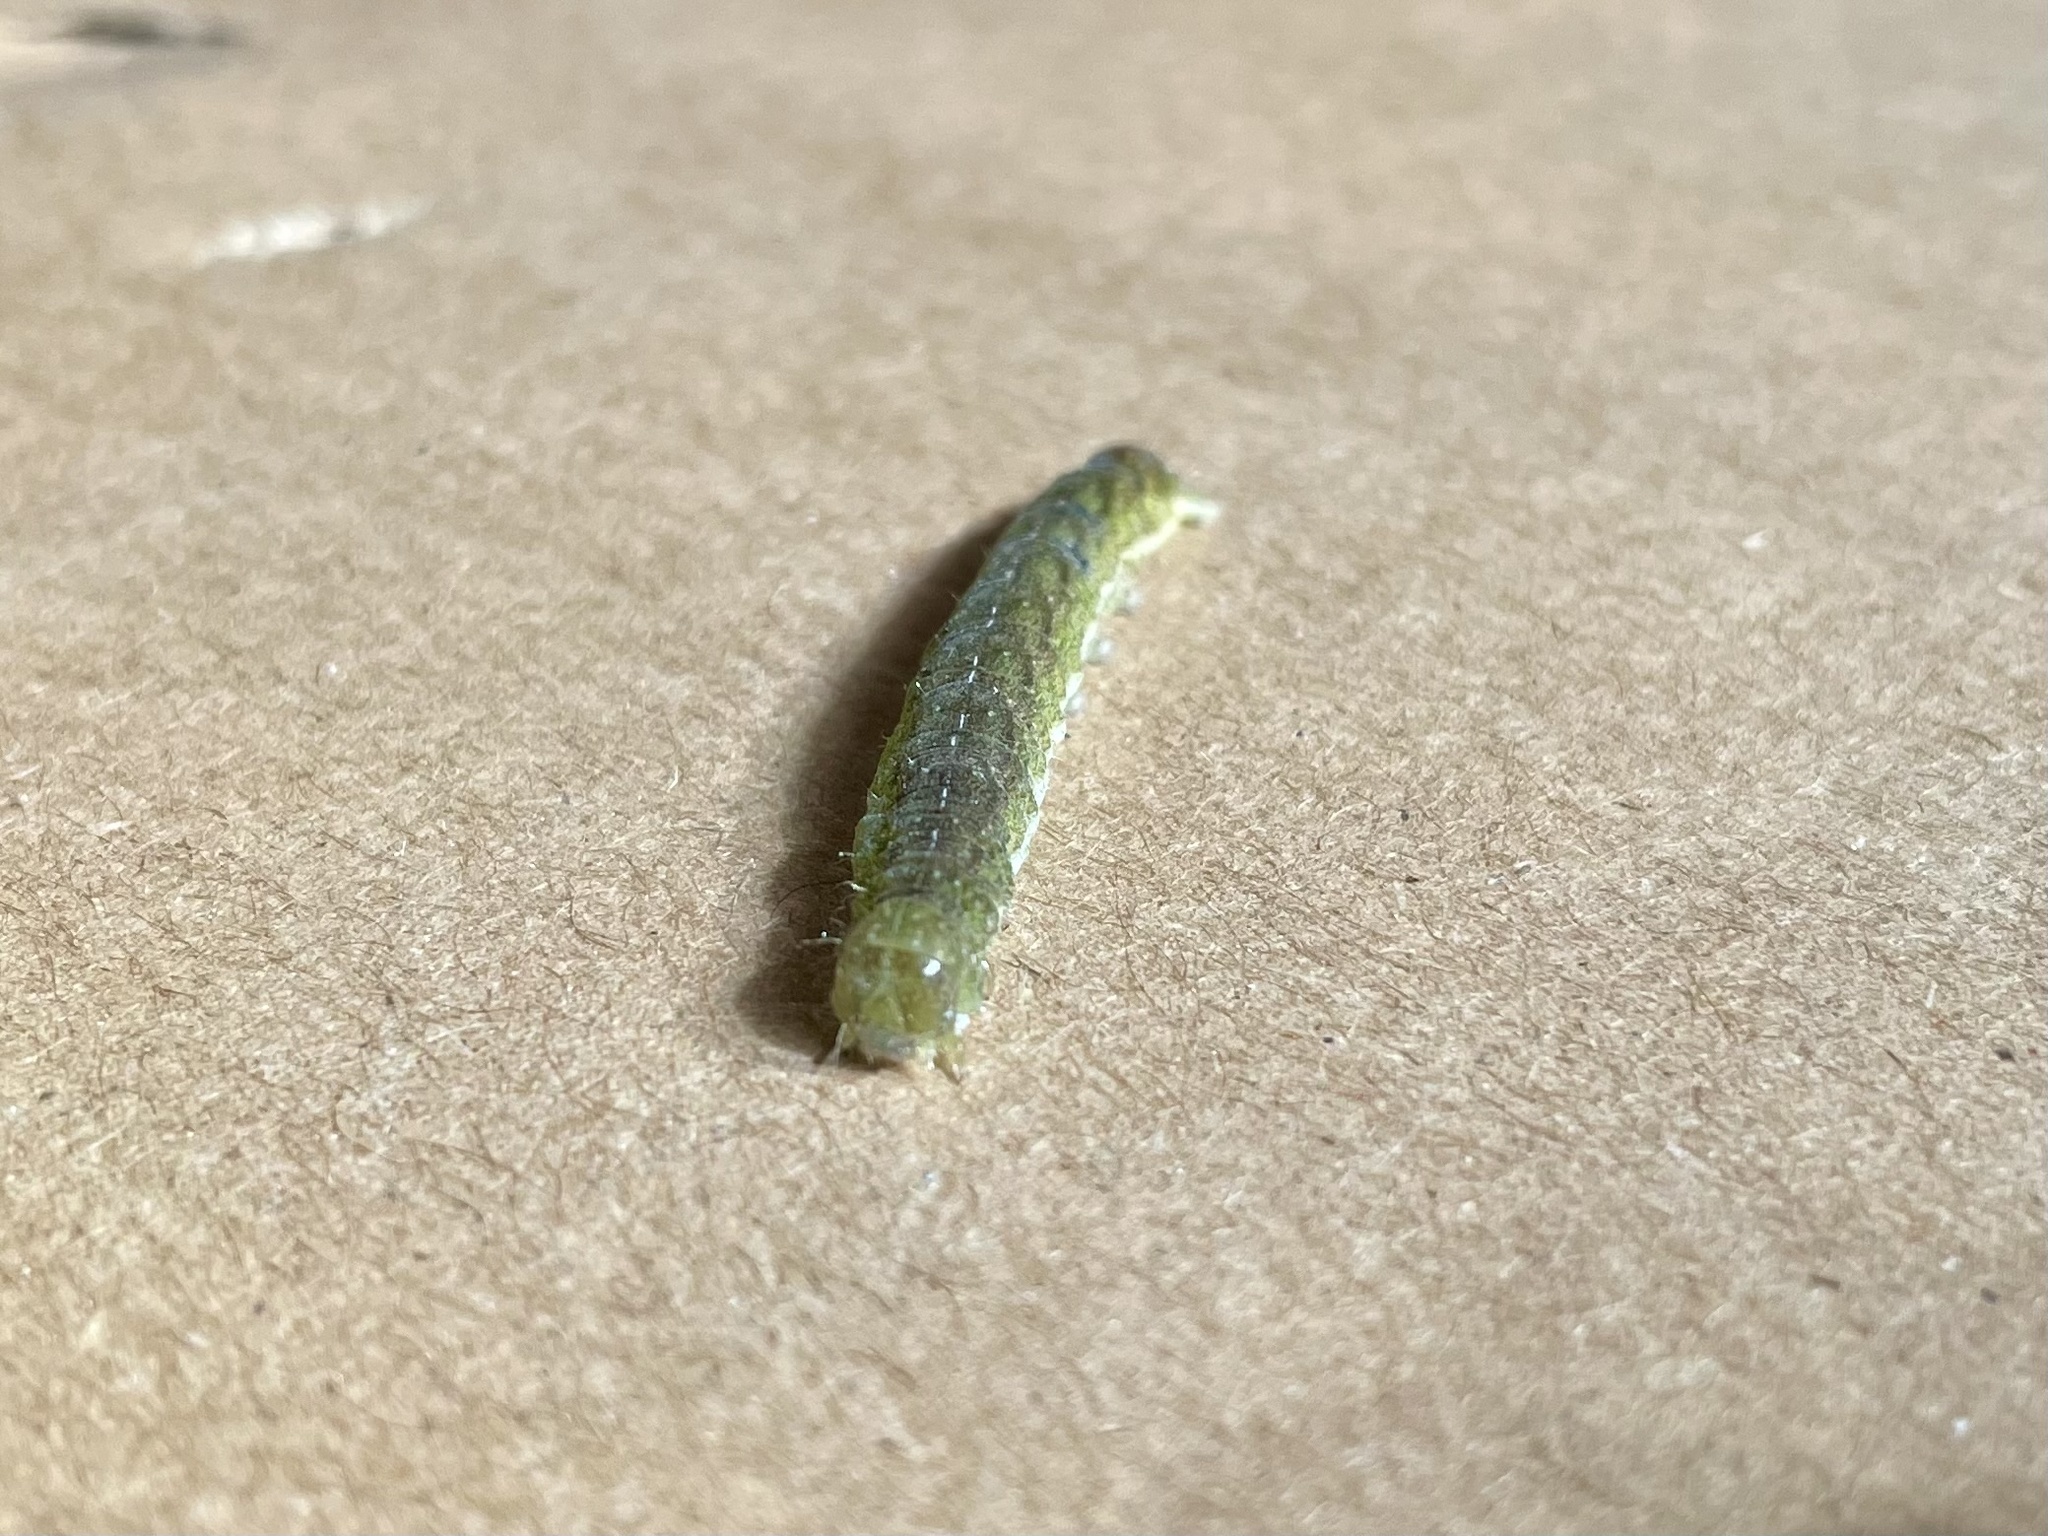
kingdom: Animalia
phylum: Arthropoda
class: Insecta
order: Lepidoptera
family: Noctuidae
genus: Phlogophora
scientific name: Phlogophora meticulosa
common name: Angle shades
